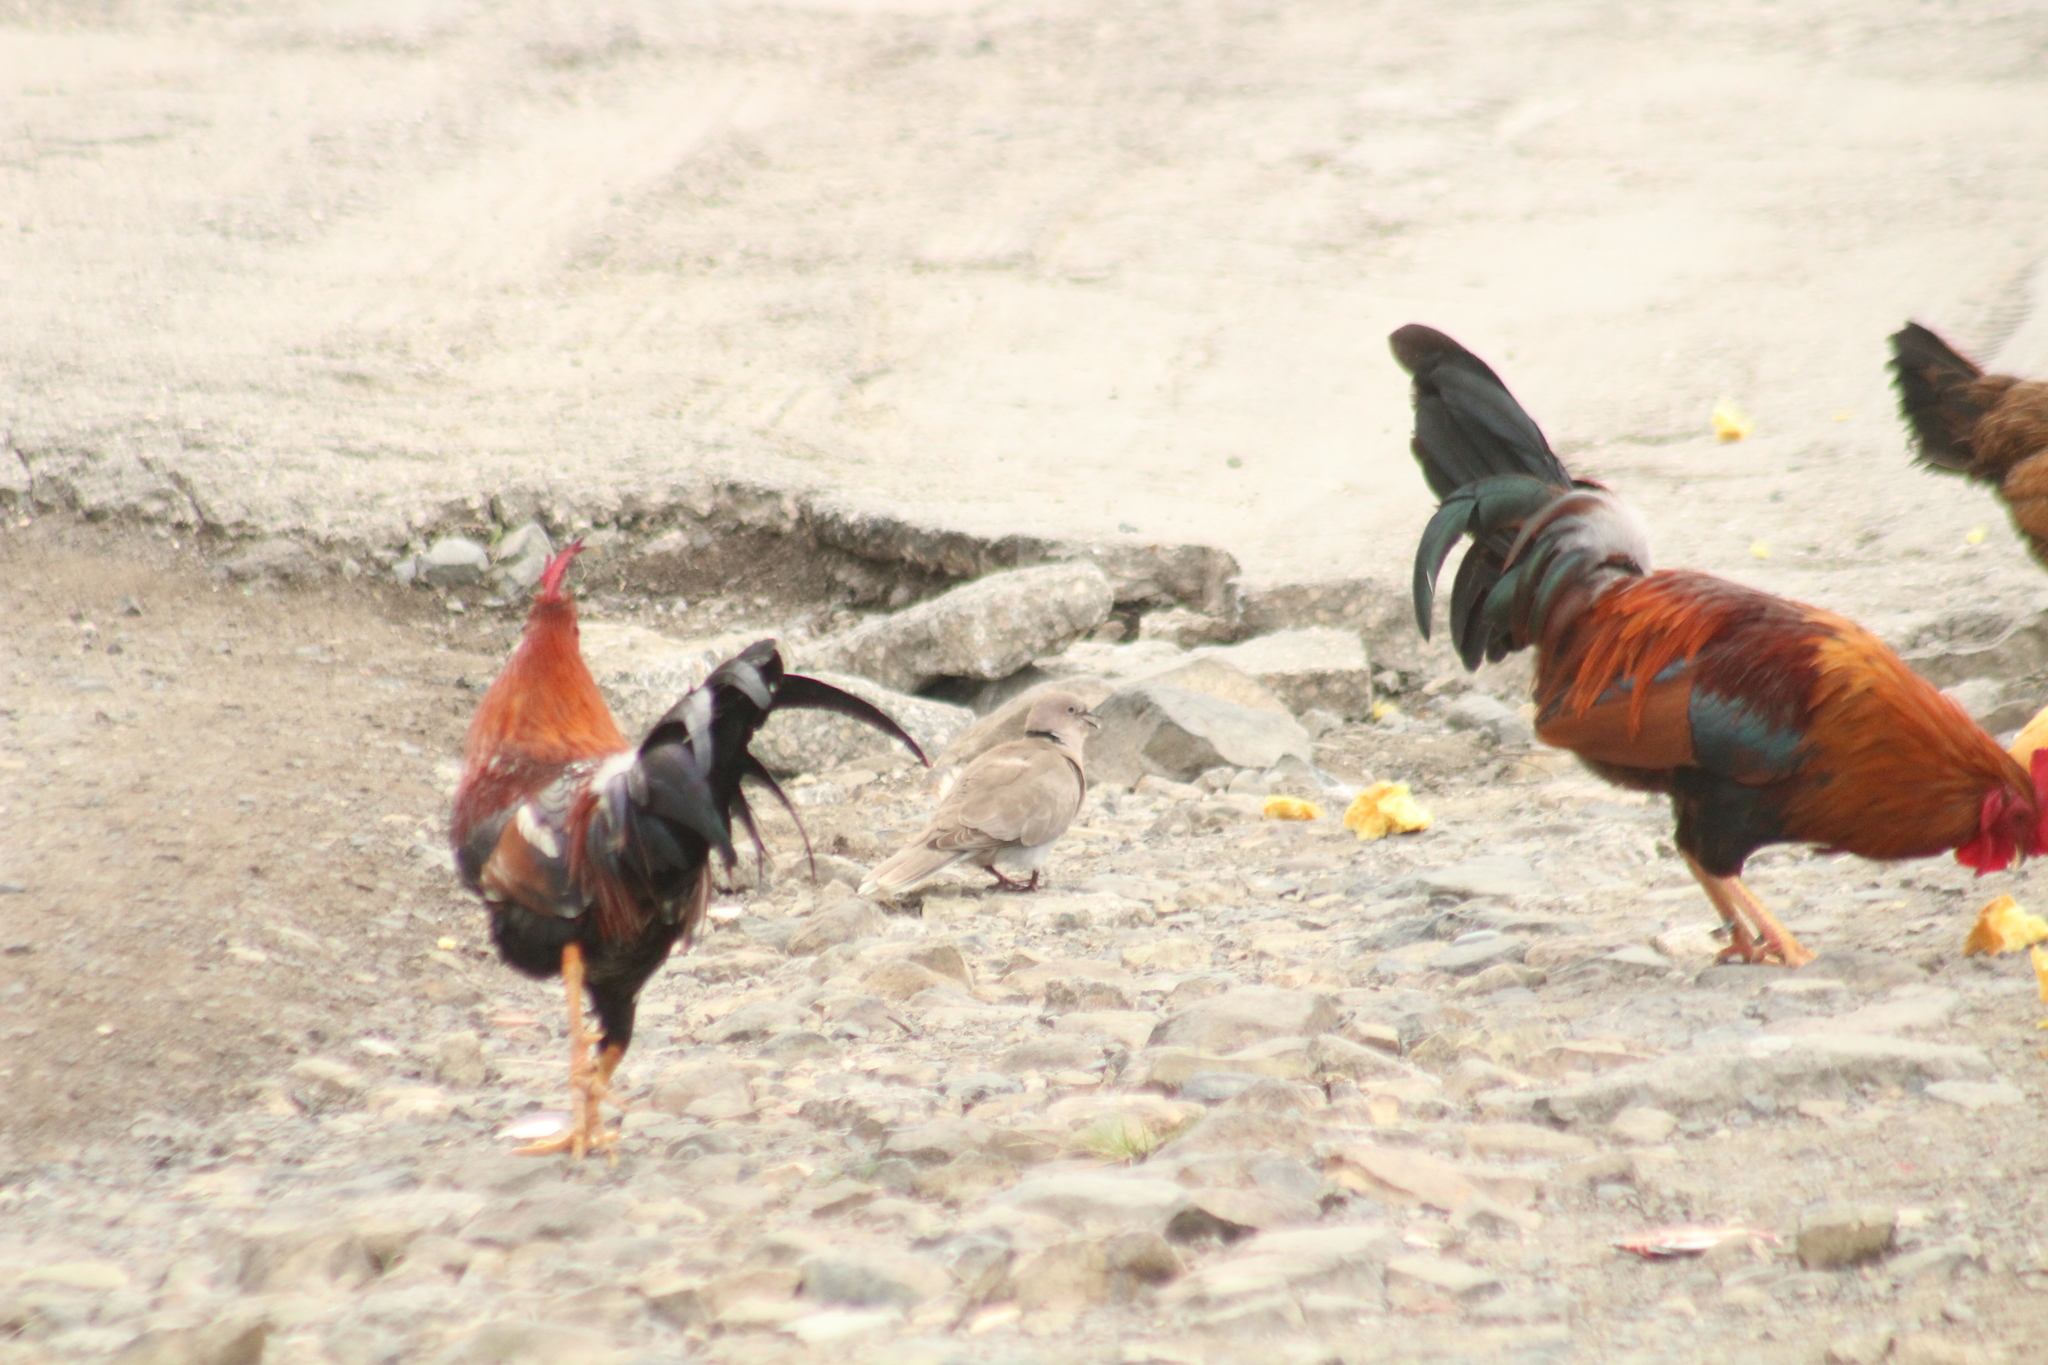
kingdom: Animalia
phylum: Chordata
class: Aves
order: Columbiformes
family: Columbidae
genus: Streptopelia
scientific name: Streptopelia decaocto
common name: Eurasian collared dove
